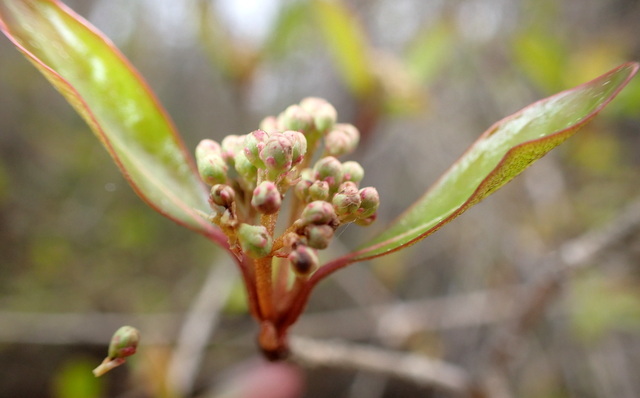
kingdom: Plantae
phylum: Tracheophyta
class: Magnoliopsida
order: Dipsacales
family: Viburnaceae
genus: Viburnum
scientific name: Viburnum obovatum
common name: Walter's viburnum
